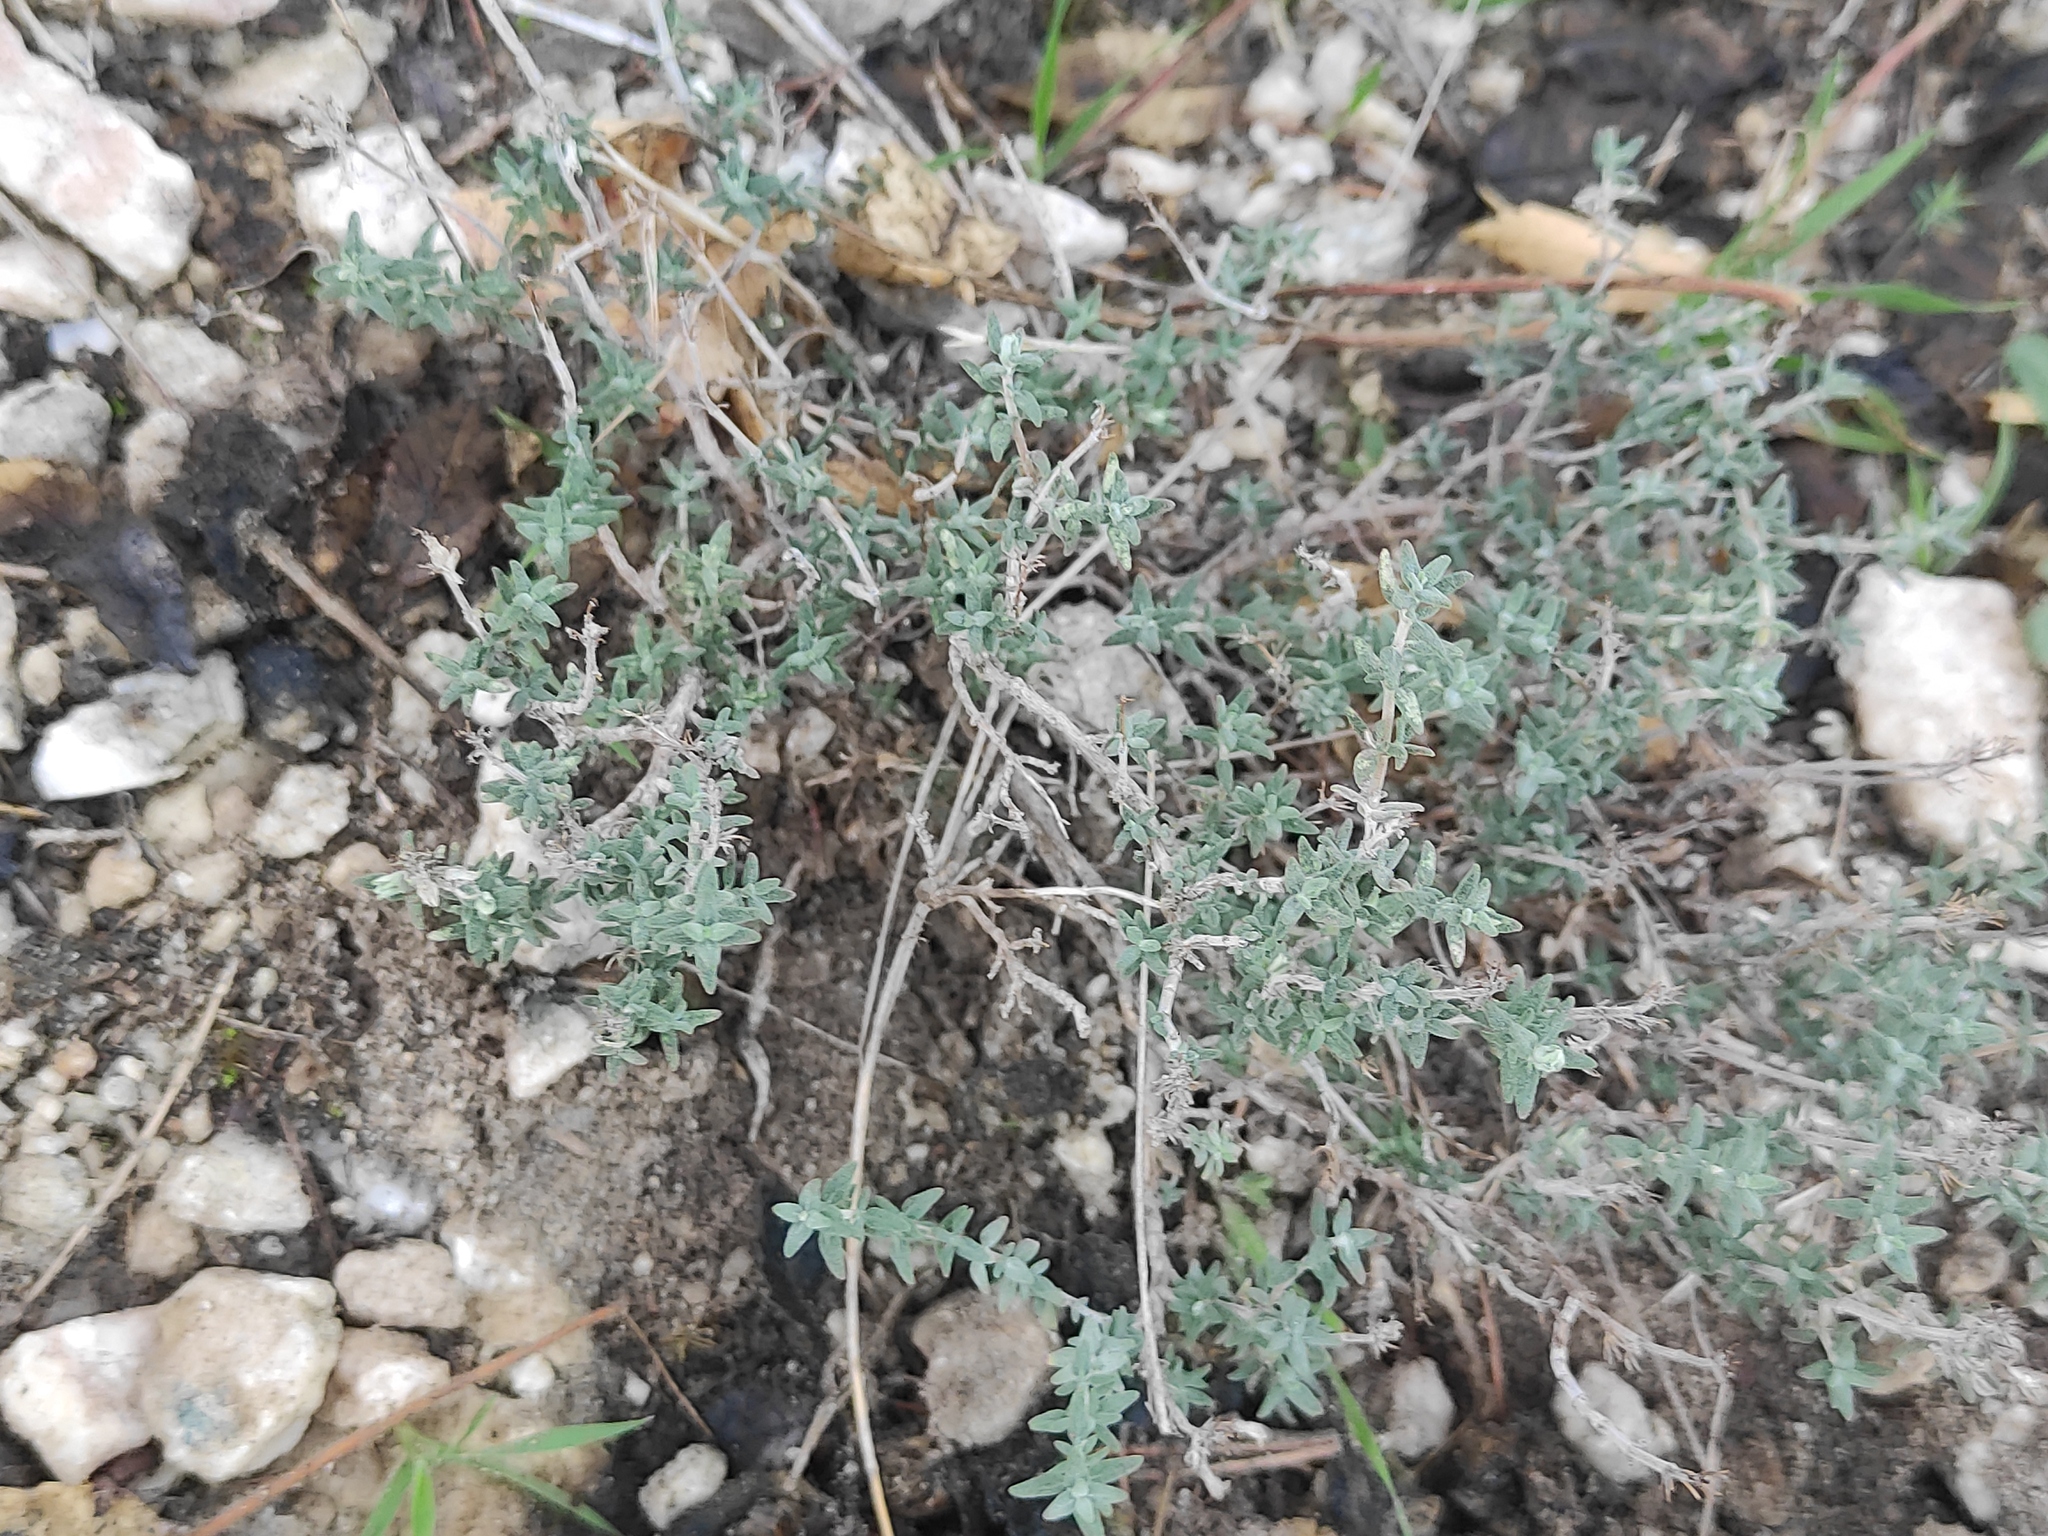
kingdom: Plantae
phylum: Tracheophyta
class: Magnoliopsida
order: Lamiales
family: Lamiaceae
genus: Thymus
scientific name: Thymus vulgaris
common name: Garden thyme
